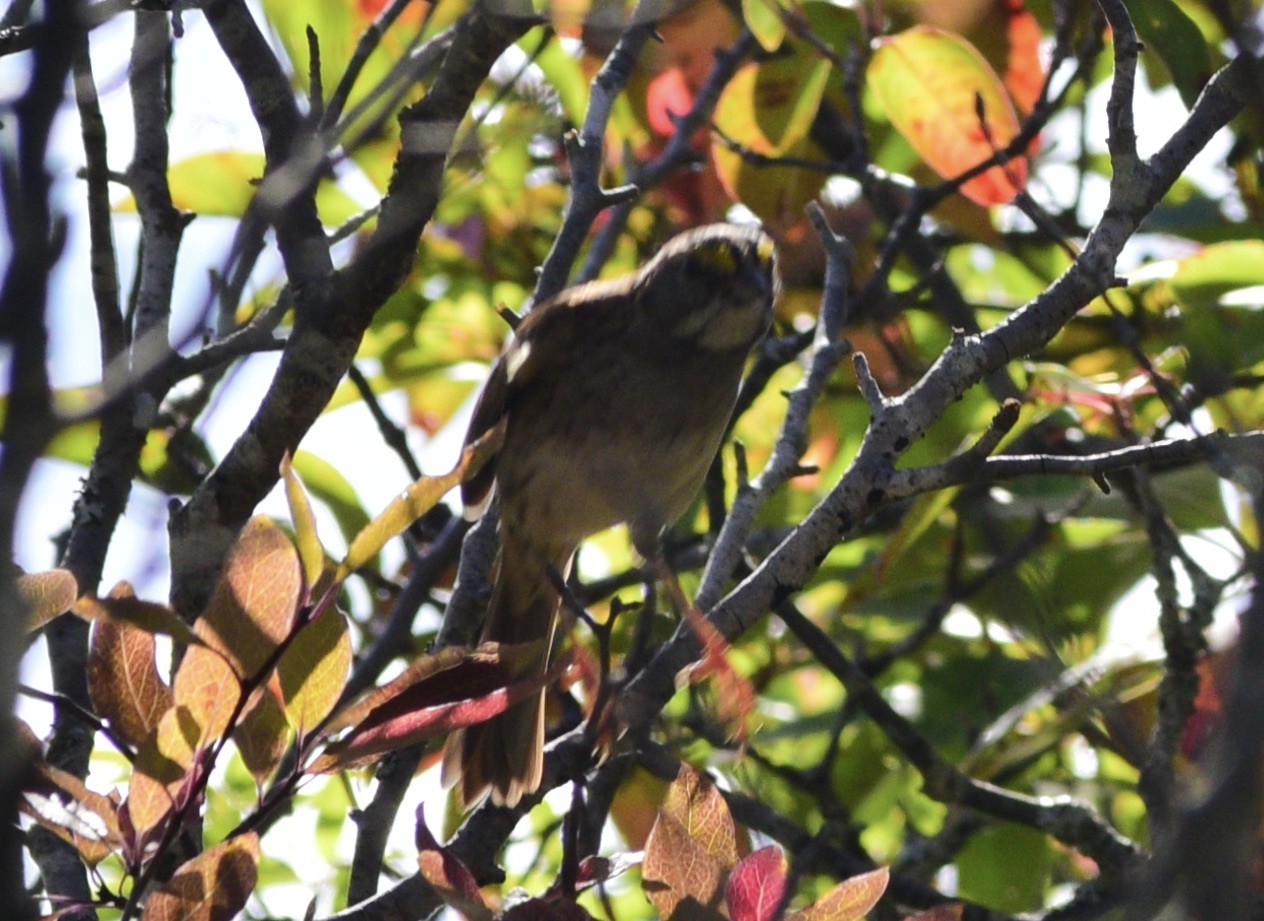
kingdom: Animalia
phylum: Chordata
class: Aves
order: Passeriformes
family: Passerellidae
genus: Zonotrichia
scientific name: Zonotrichia albicollis
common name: White-throated sparrow
